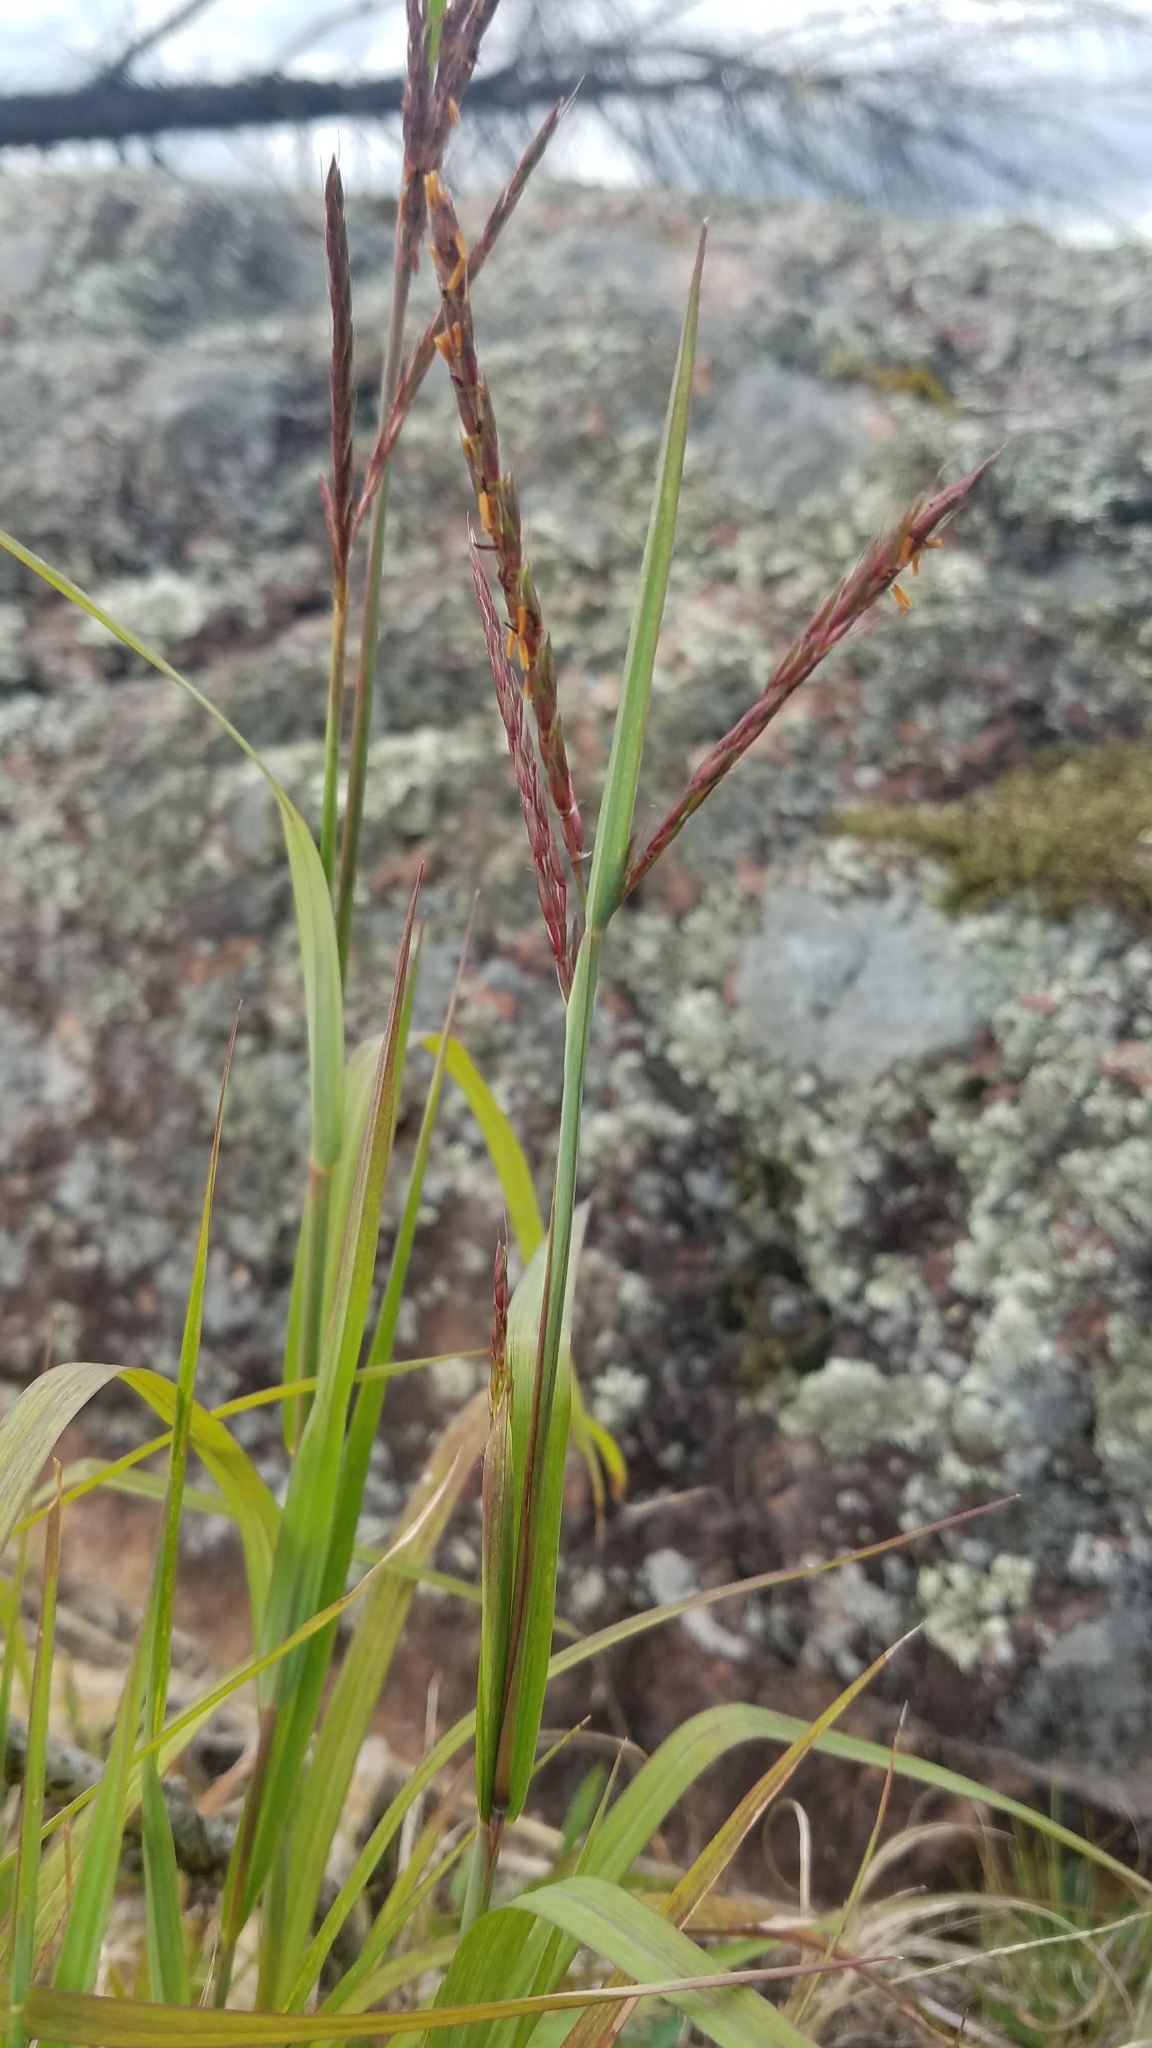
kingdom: Plantae
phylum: Tracheophyta
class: Liliopsida
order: Poales
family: Poaceae
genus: Andropogon
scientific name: Andropogon gerardi
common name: Big bluestem
